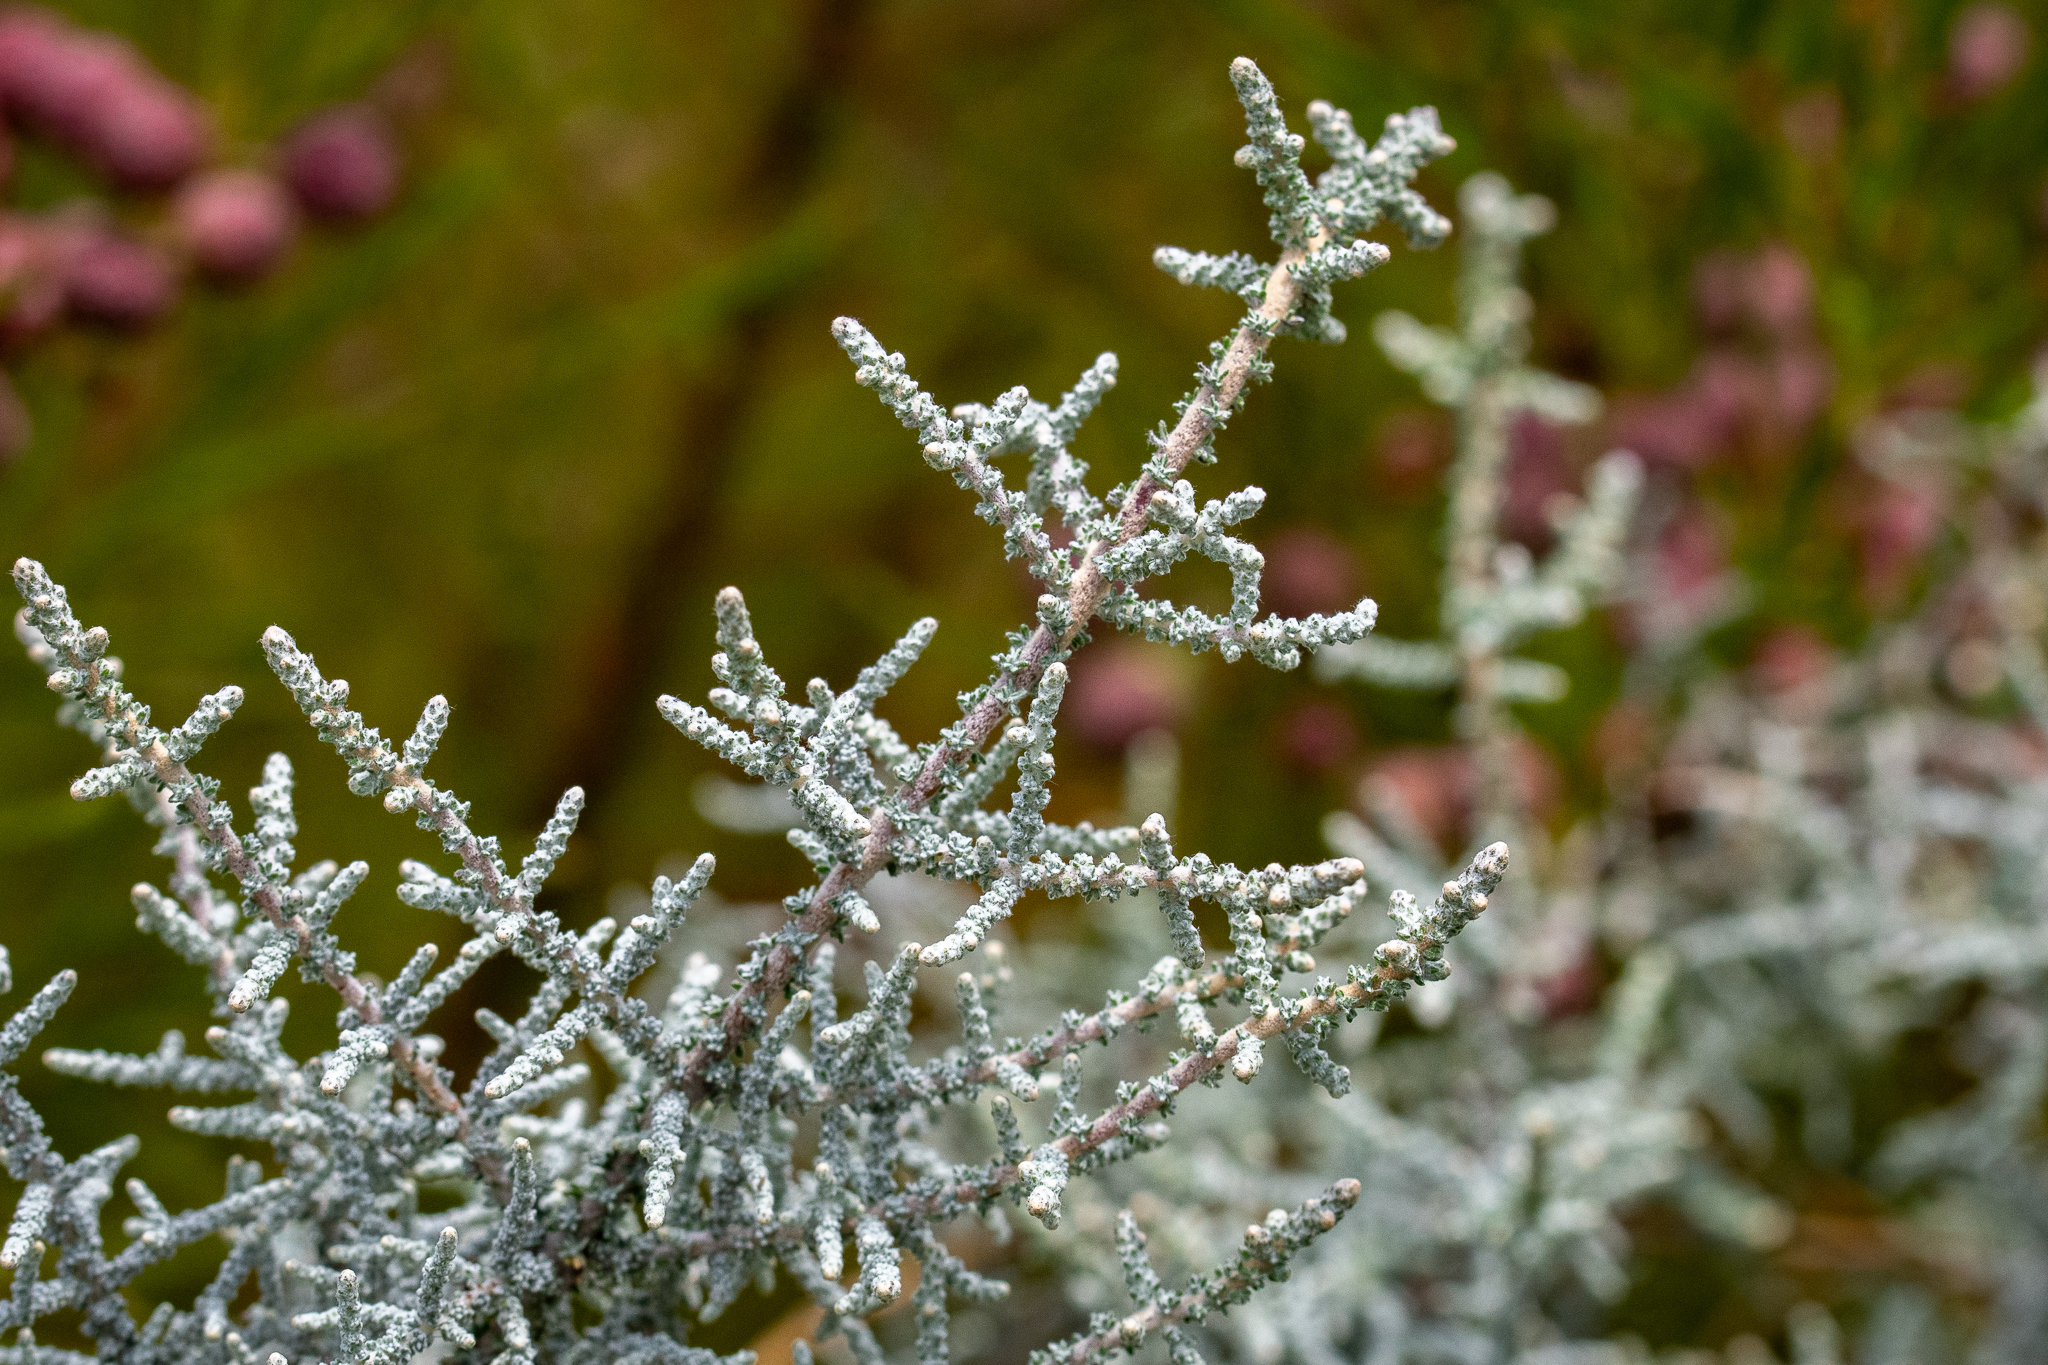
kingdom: Plantae
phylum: Tracheophyta
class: Magnoliopsida
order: Asterales
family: Asteraceae
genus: Seriphium
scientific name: Seriphium plumosum
